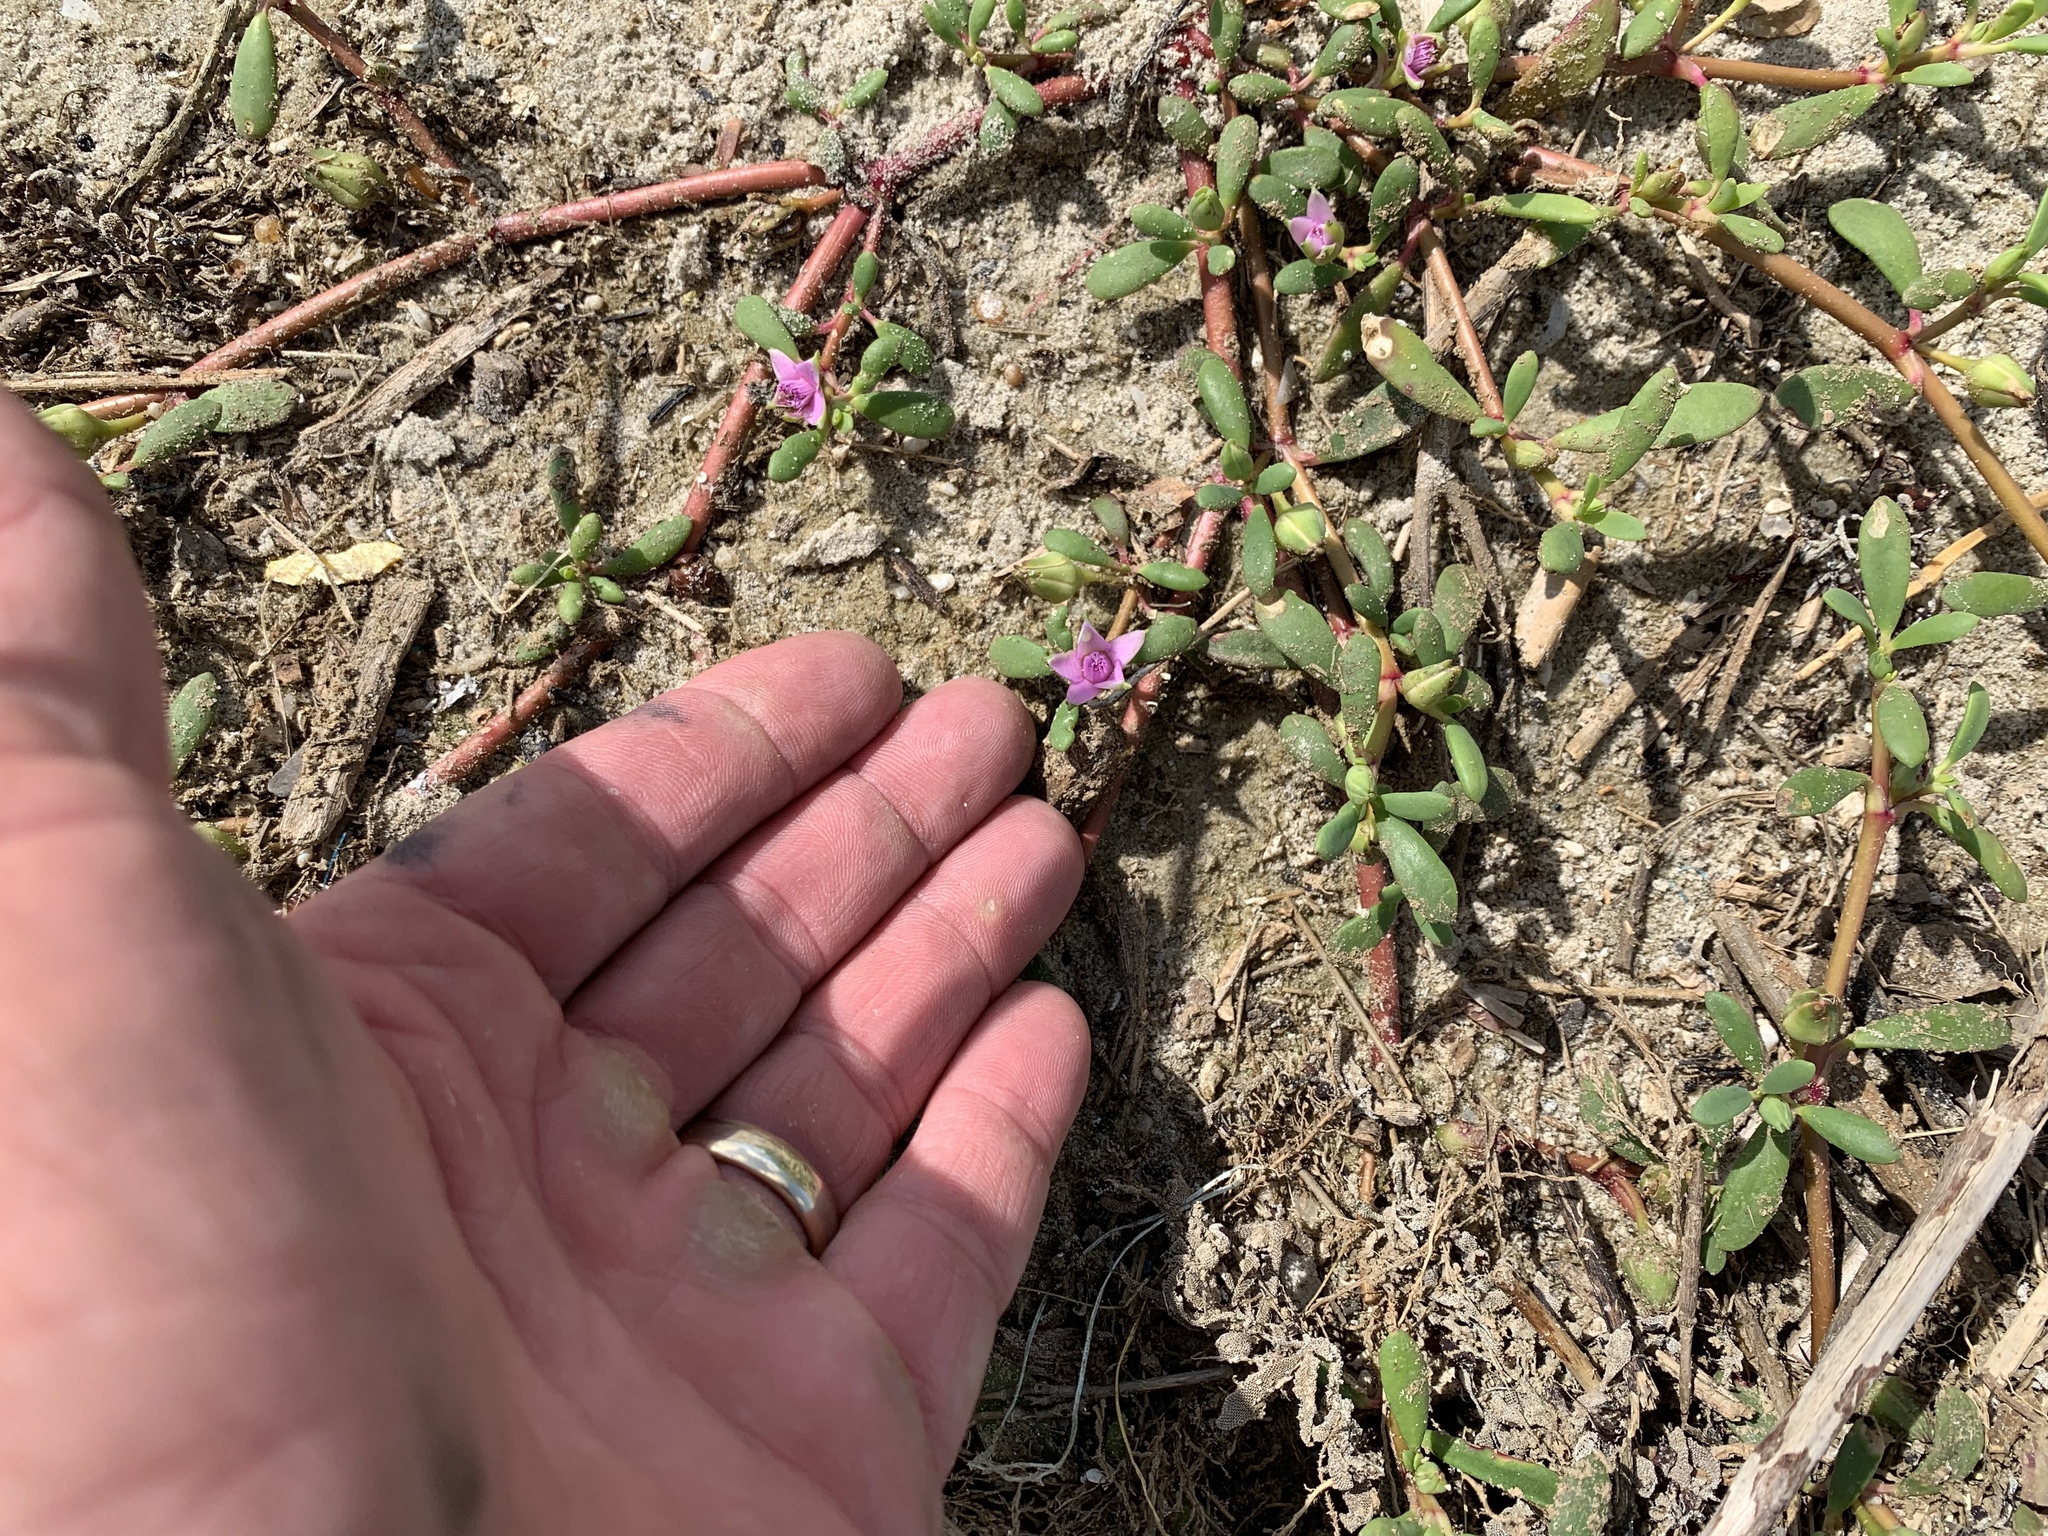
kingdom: Plantae
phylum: Tracheophyta
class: Magnoliopsida
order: Caryophyllales
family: Aizoaceae
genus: Sesuvium
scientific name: Sesuvium portulacastrum
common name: Sea-purslane
